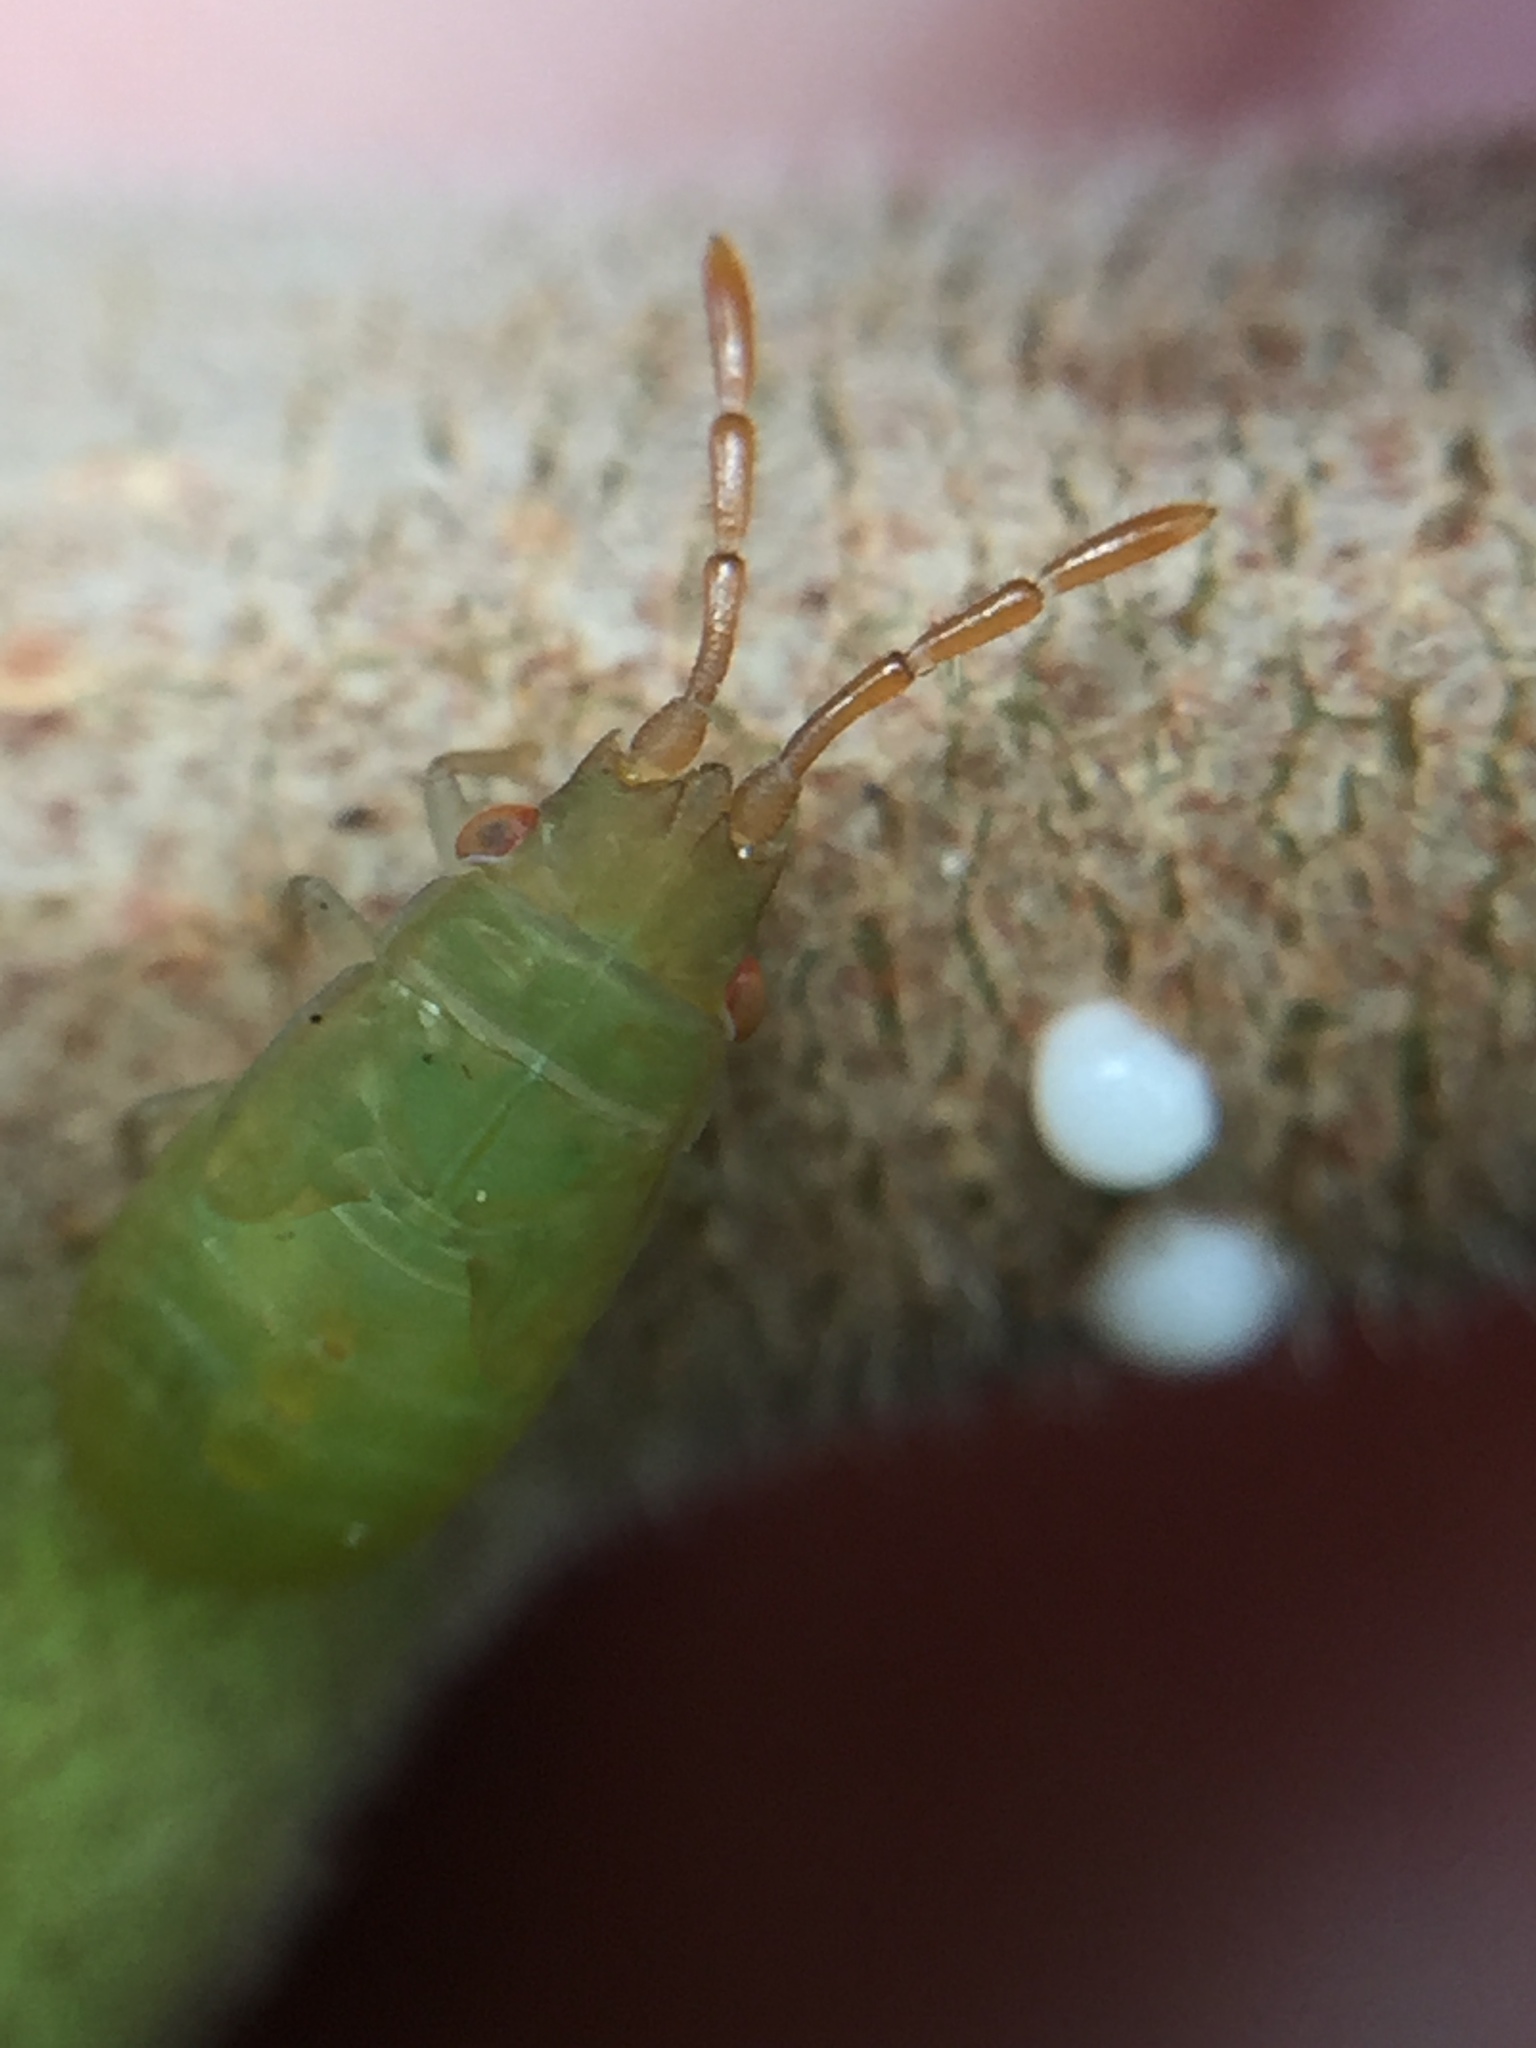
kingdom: Animalia
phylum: Arthropoda
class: Insecta
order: Hemiptera
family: Meschiidae
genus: Meschia
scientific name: Meschia barrowensis
